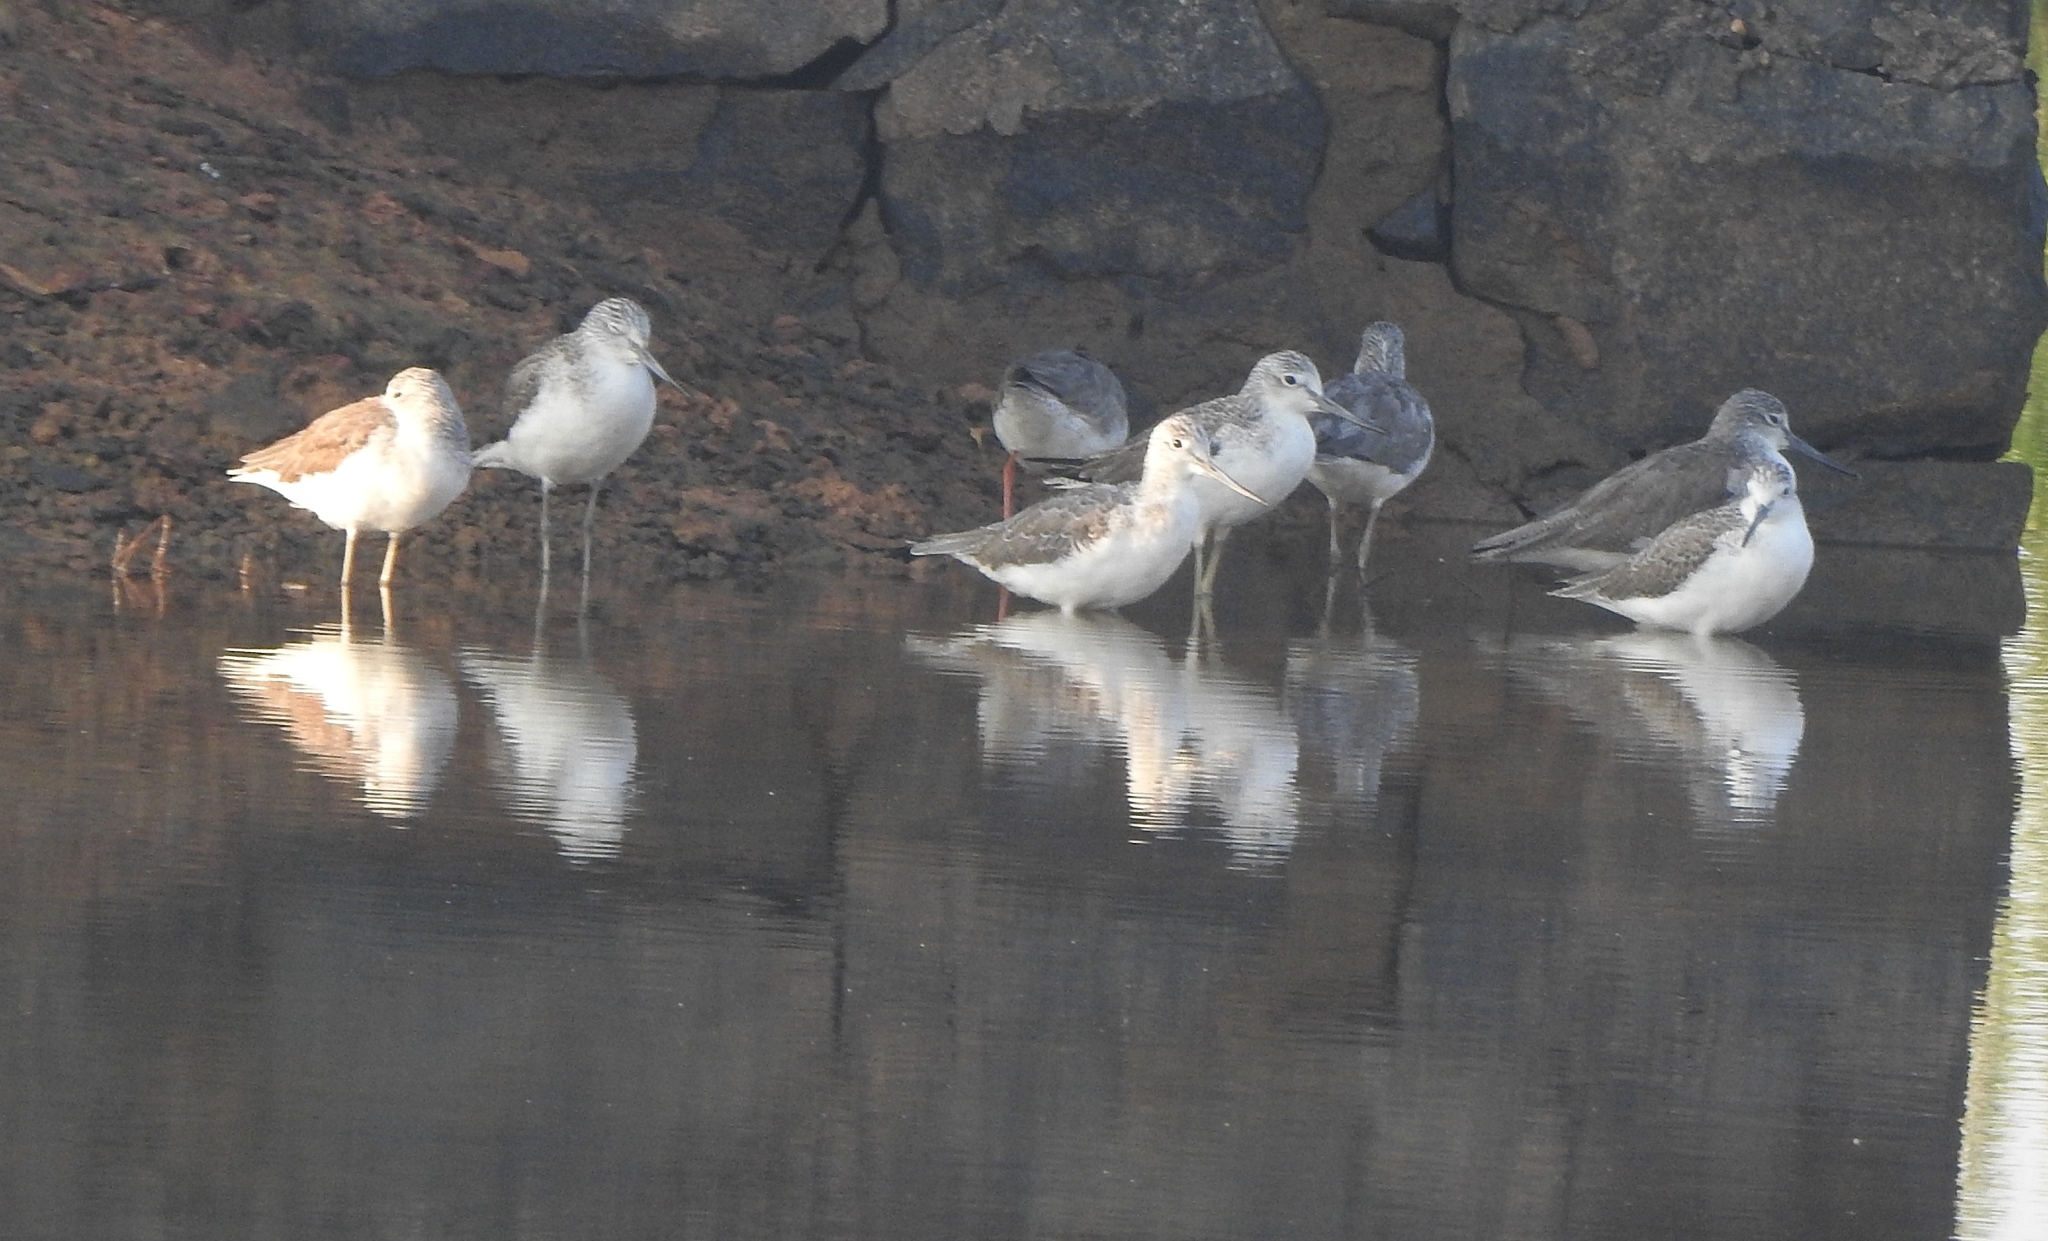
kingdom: Animalia
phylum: Chordata
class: Aves
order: Charadriiformes
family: Scolopacidae
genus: Tringa
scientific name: Tringa nebularia
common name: Common greenshank
